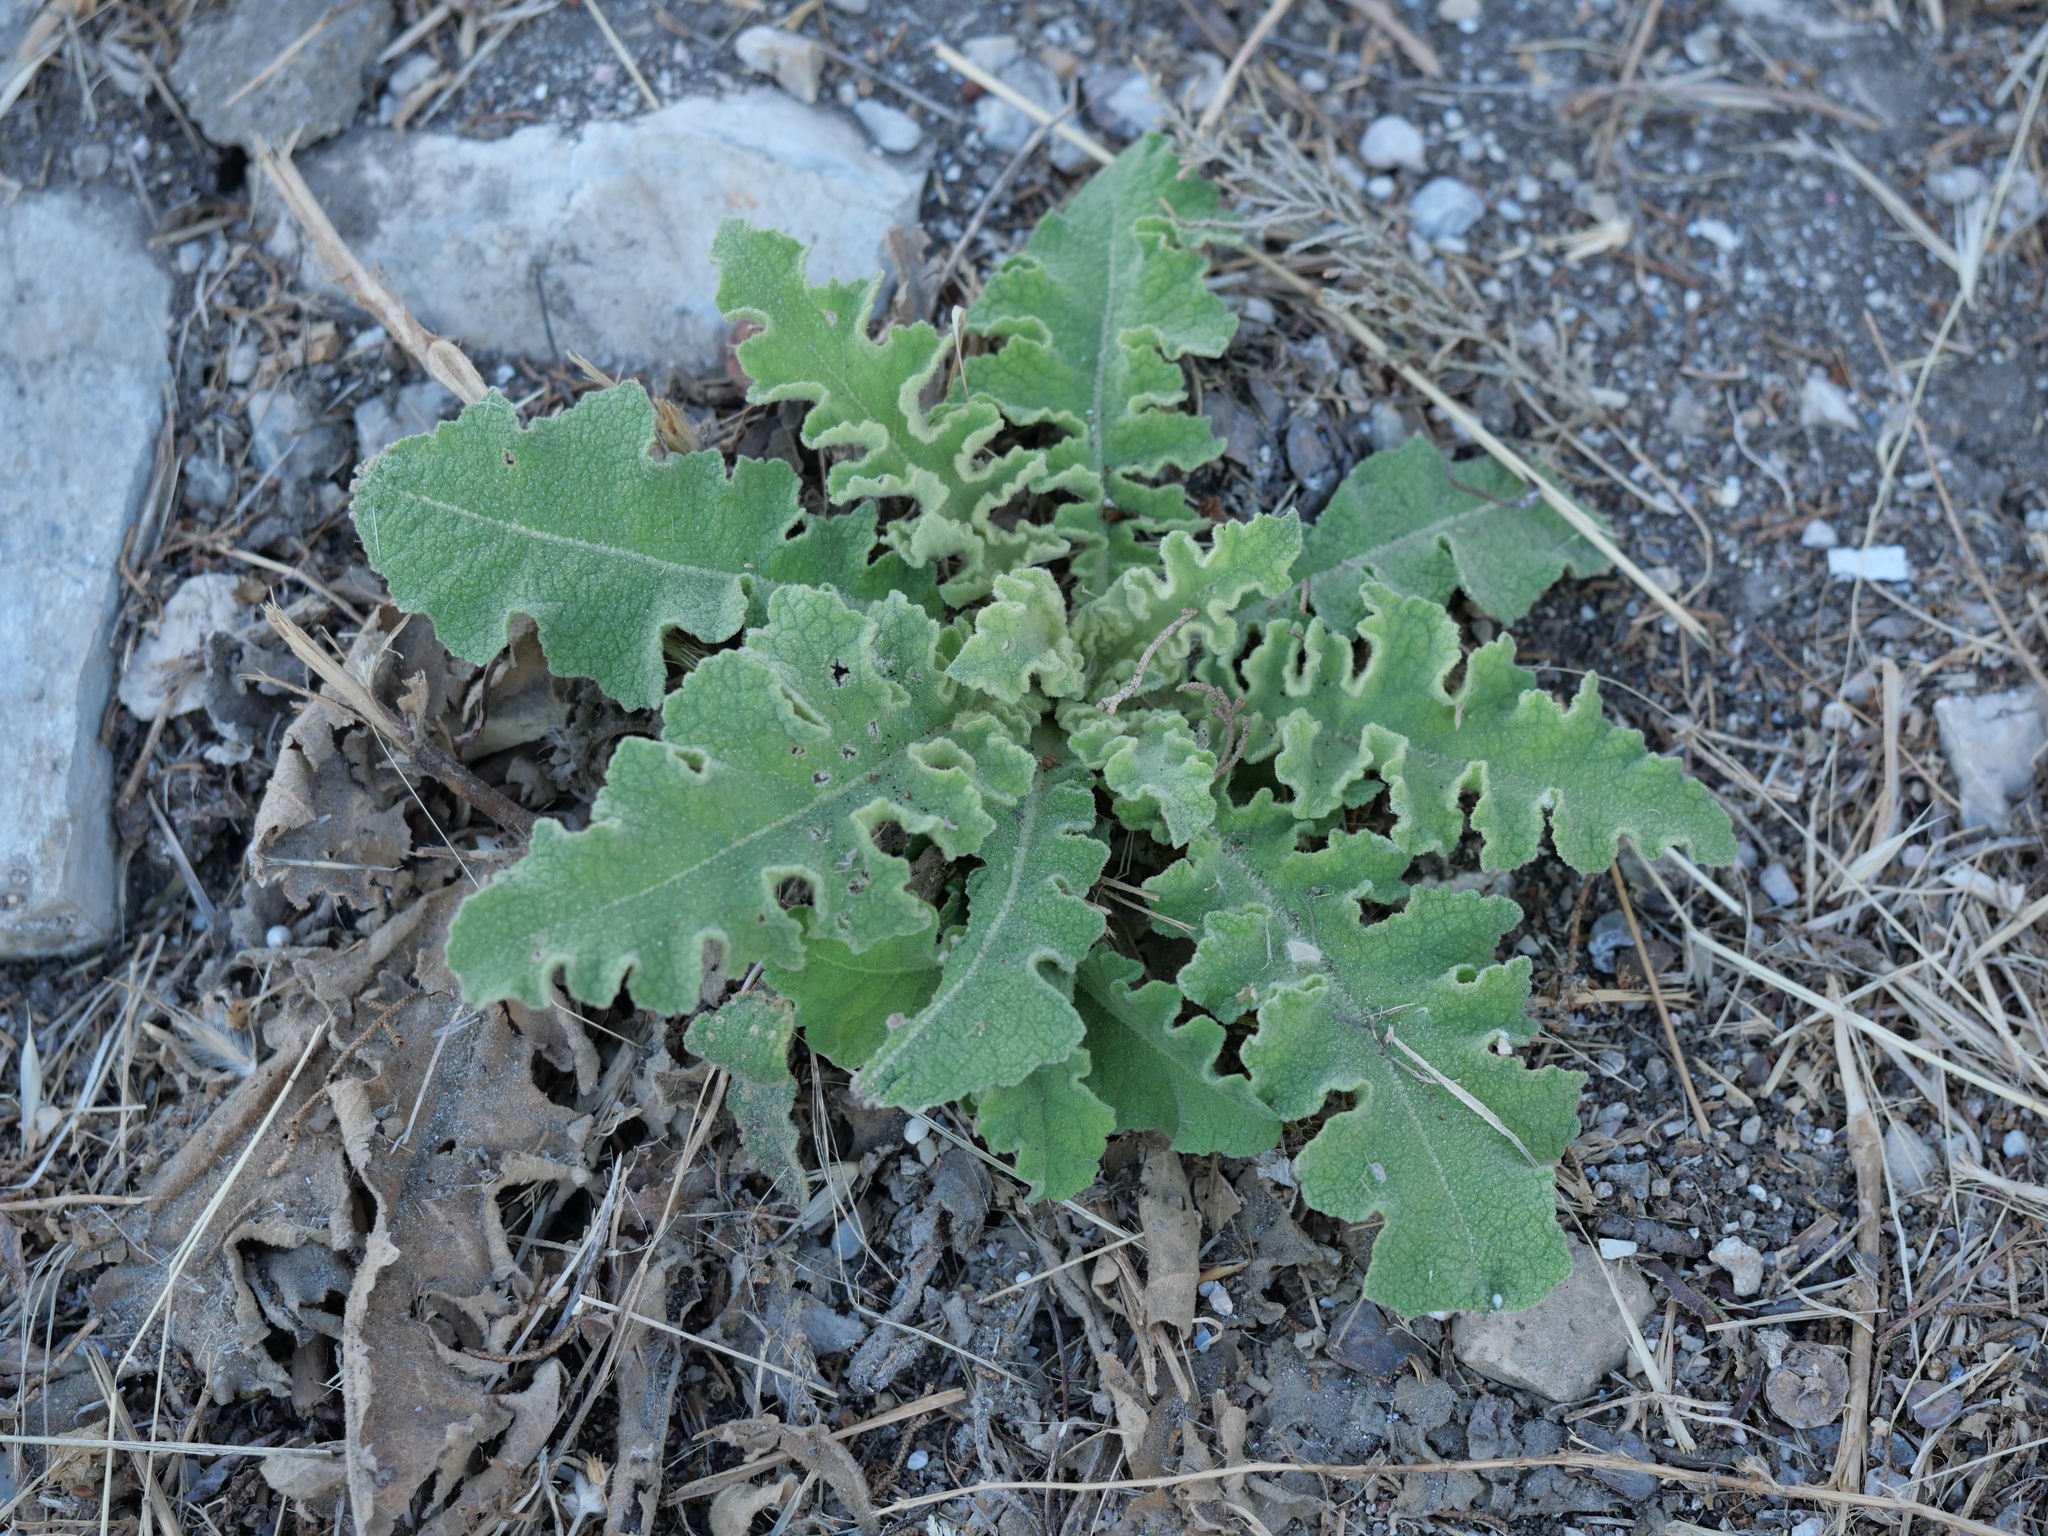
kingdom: Plantae
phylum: Tracheophyta
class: Magnoliopsida
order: Lamiales
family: Scrophulariaceae
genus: Verbascum
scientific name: Verbascum sinuatum
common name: Wavyleaf mullein
